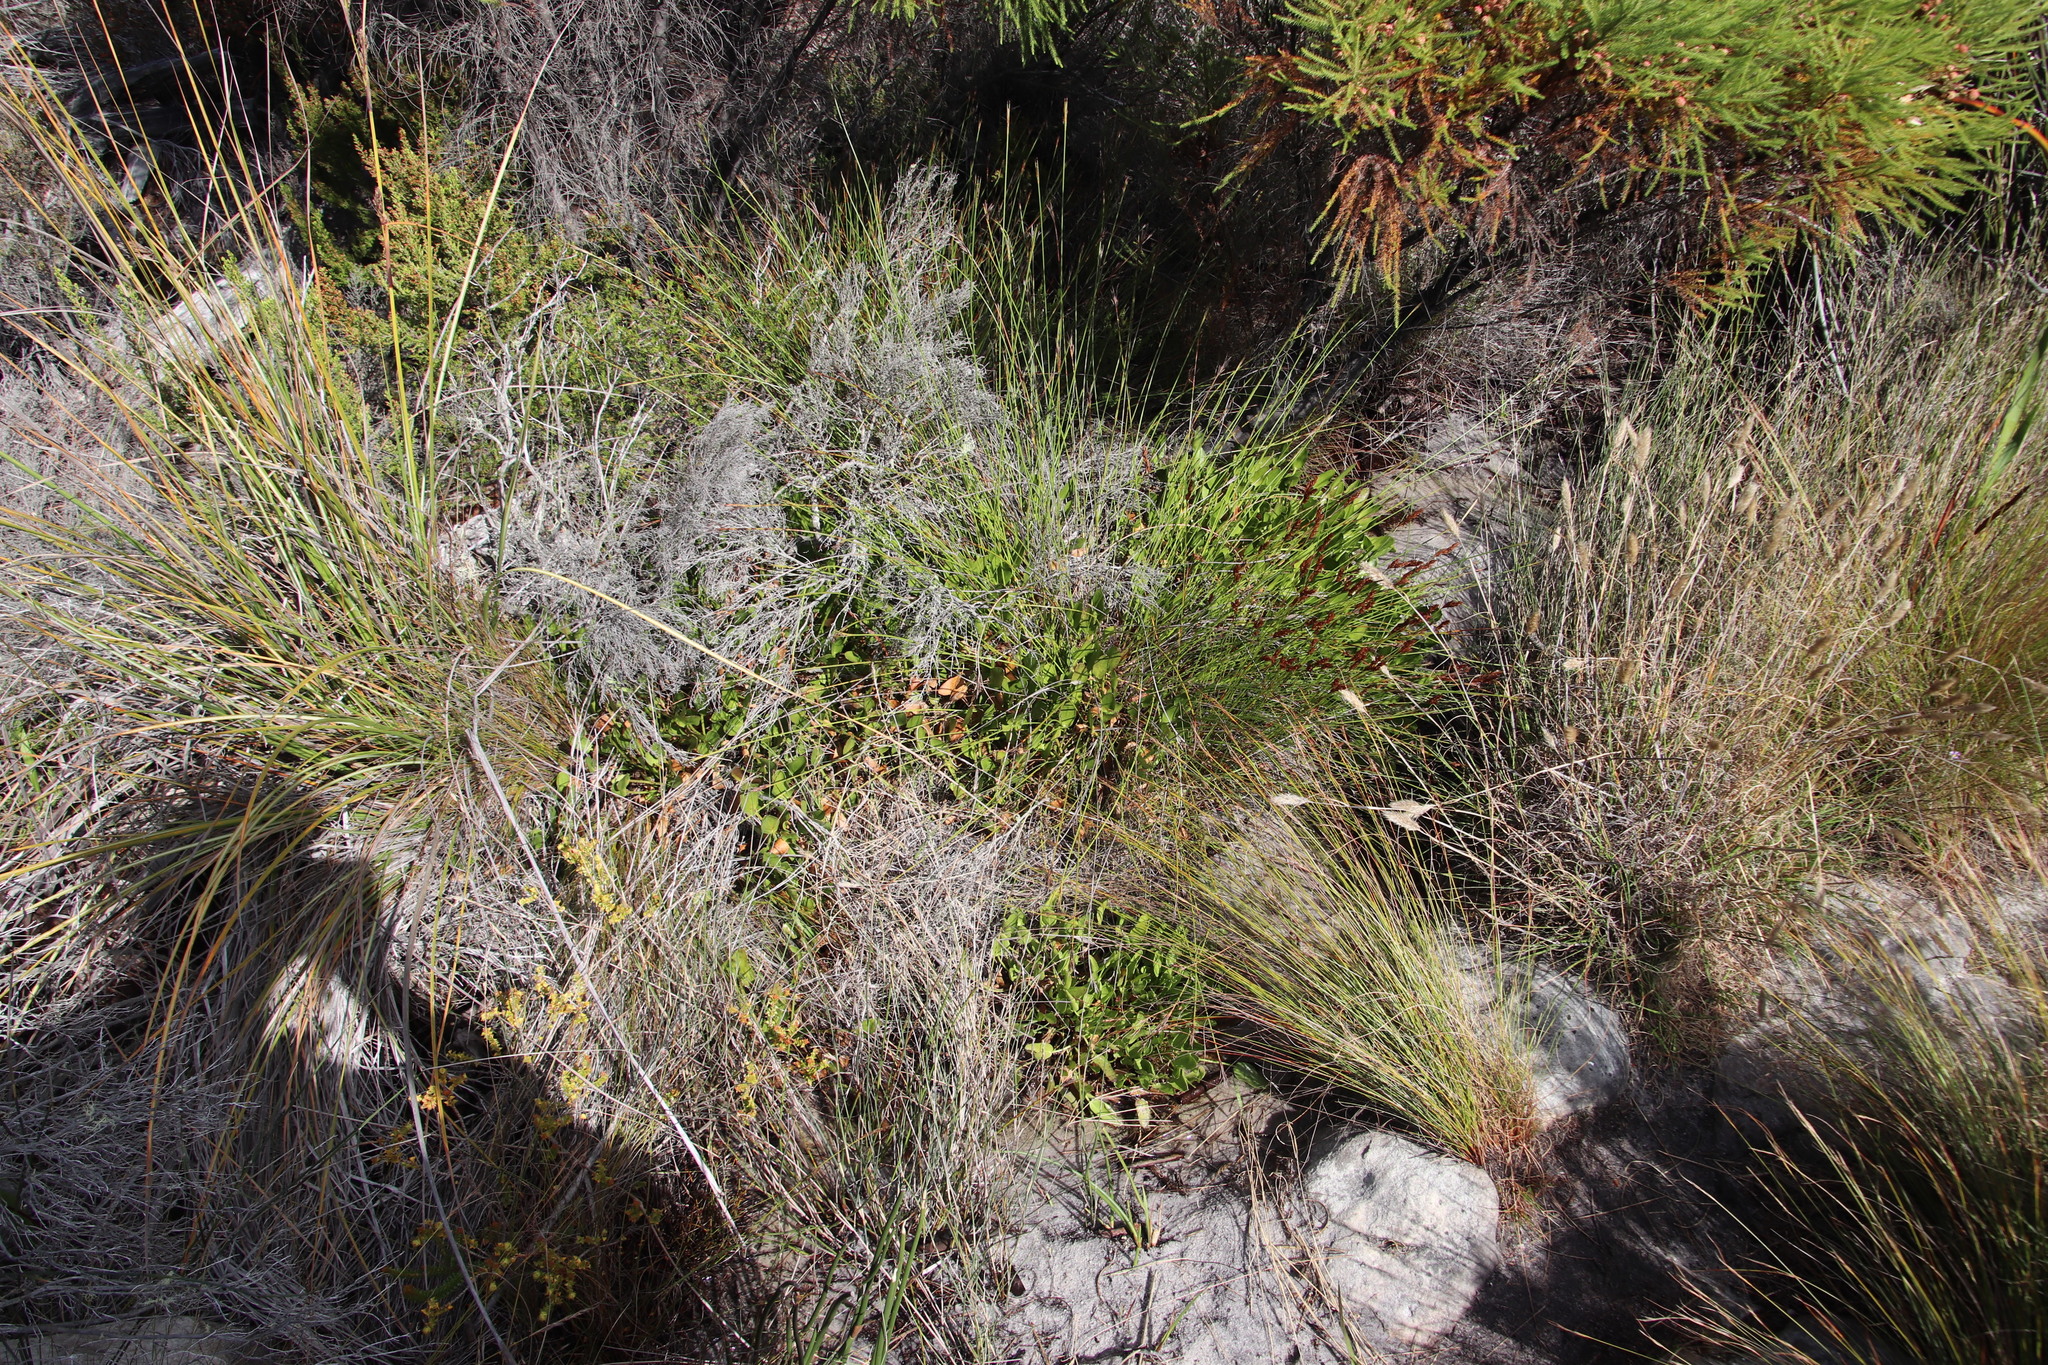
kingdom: Plantae
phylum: Tracheophyta
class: Magnoliopsida
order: Asterales
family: Menyanthaceae
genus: Villarsia
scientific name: Villarsia manningiana
